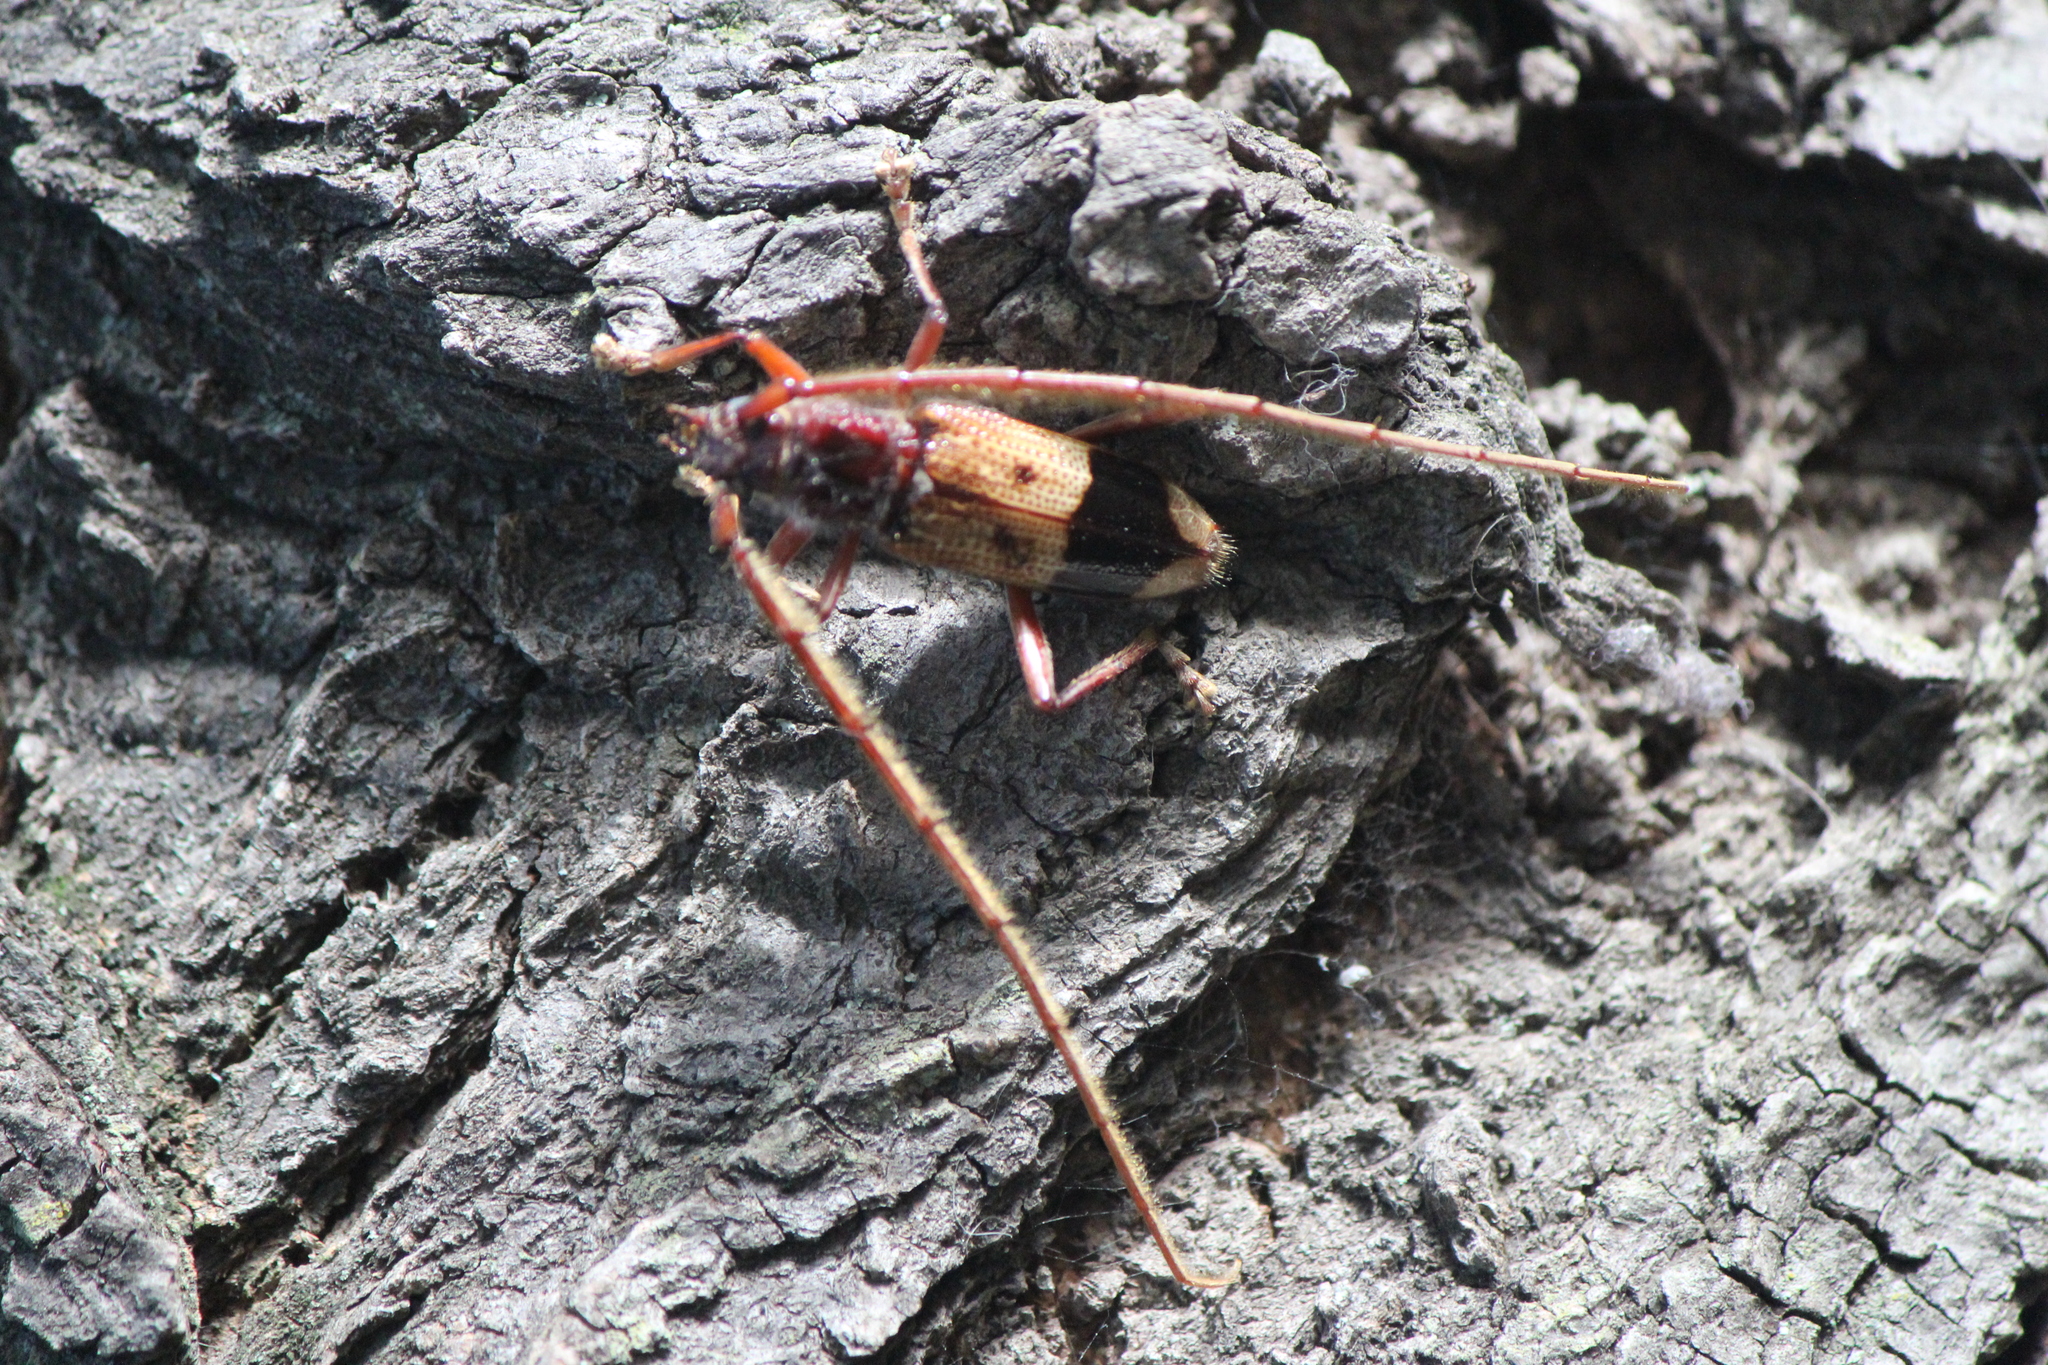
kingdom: Animalia
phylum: Arthropoda
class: Insecta
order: Coleoptera
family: Cerambycidae
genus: Phoracantha
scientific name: Phoracantha recurva
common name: Eucalyptus longhorned borer
